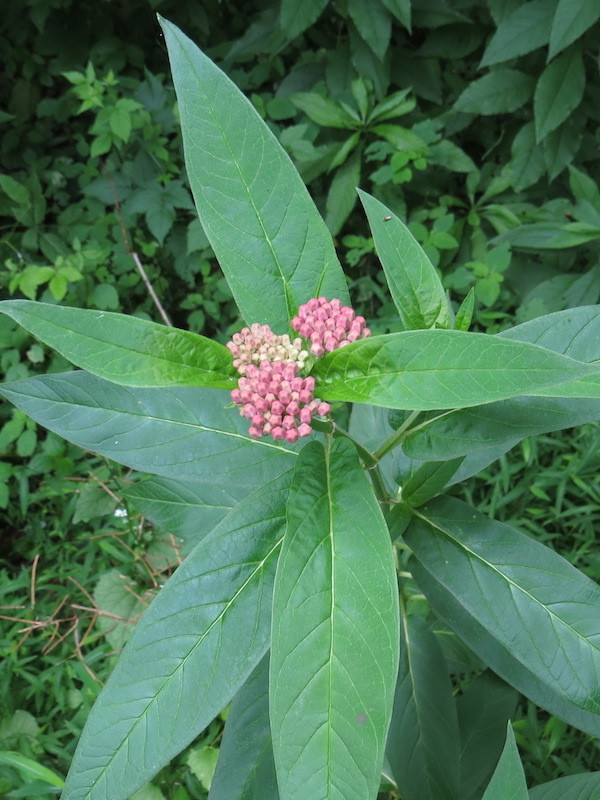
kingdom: Plantae
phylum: Tracheophyta
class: Magnoliopsida
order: Gentianales
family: Apocynaceae
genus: Asclepias
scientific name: Asclepias incarnata
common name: Swamp milkweed
